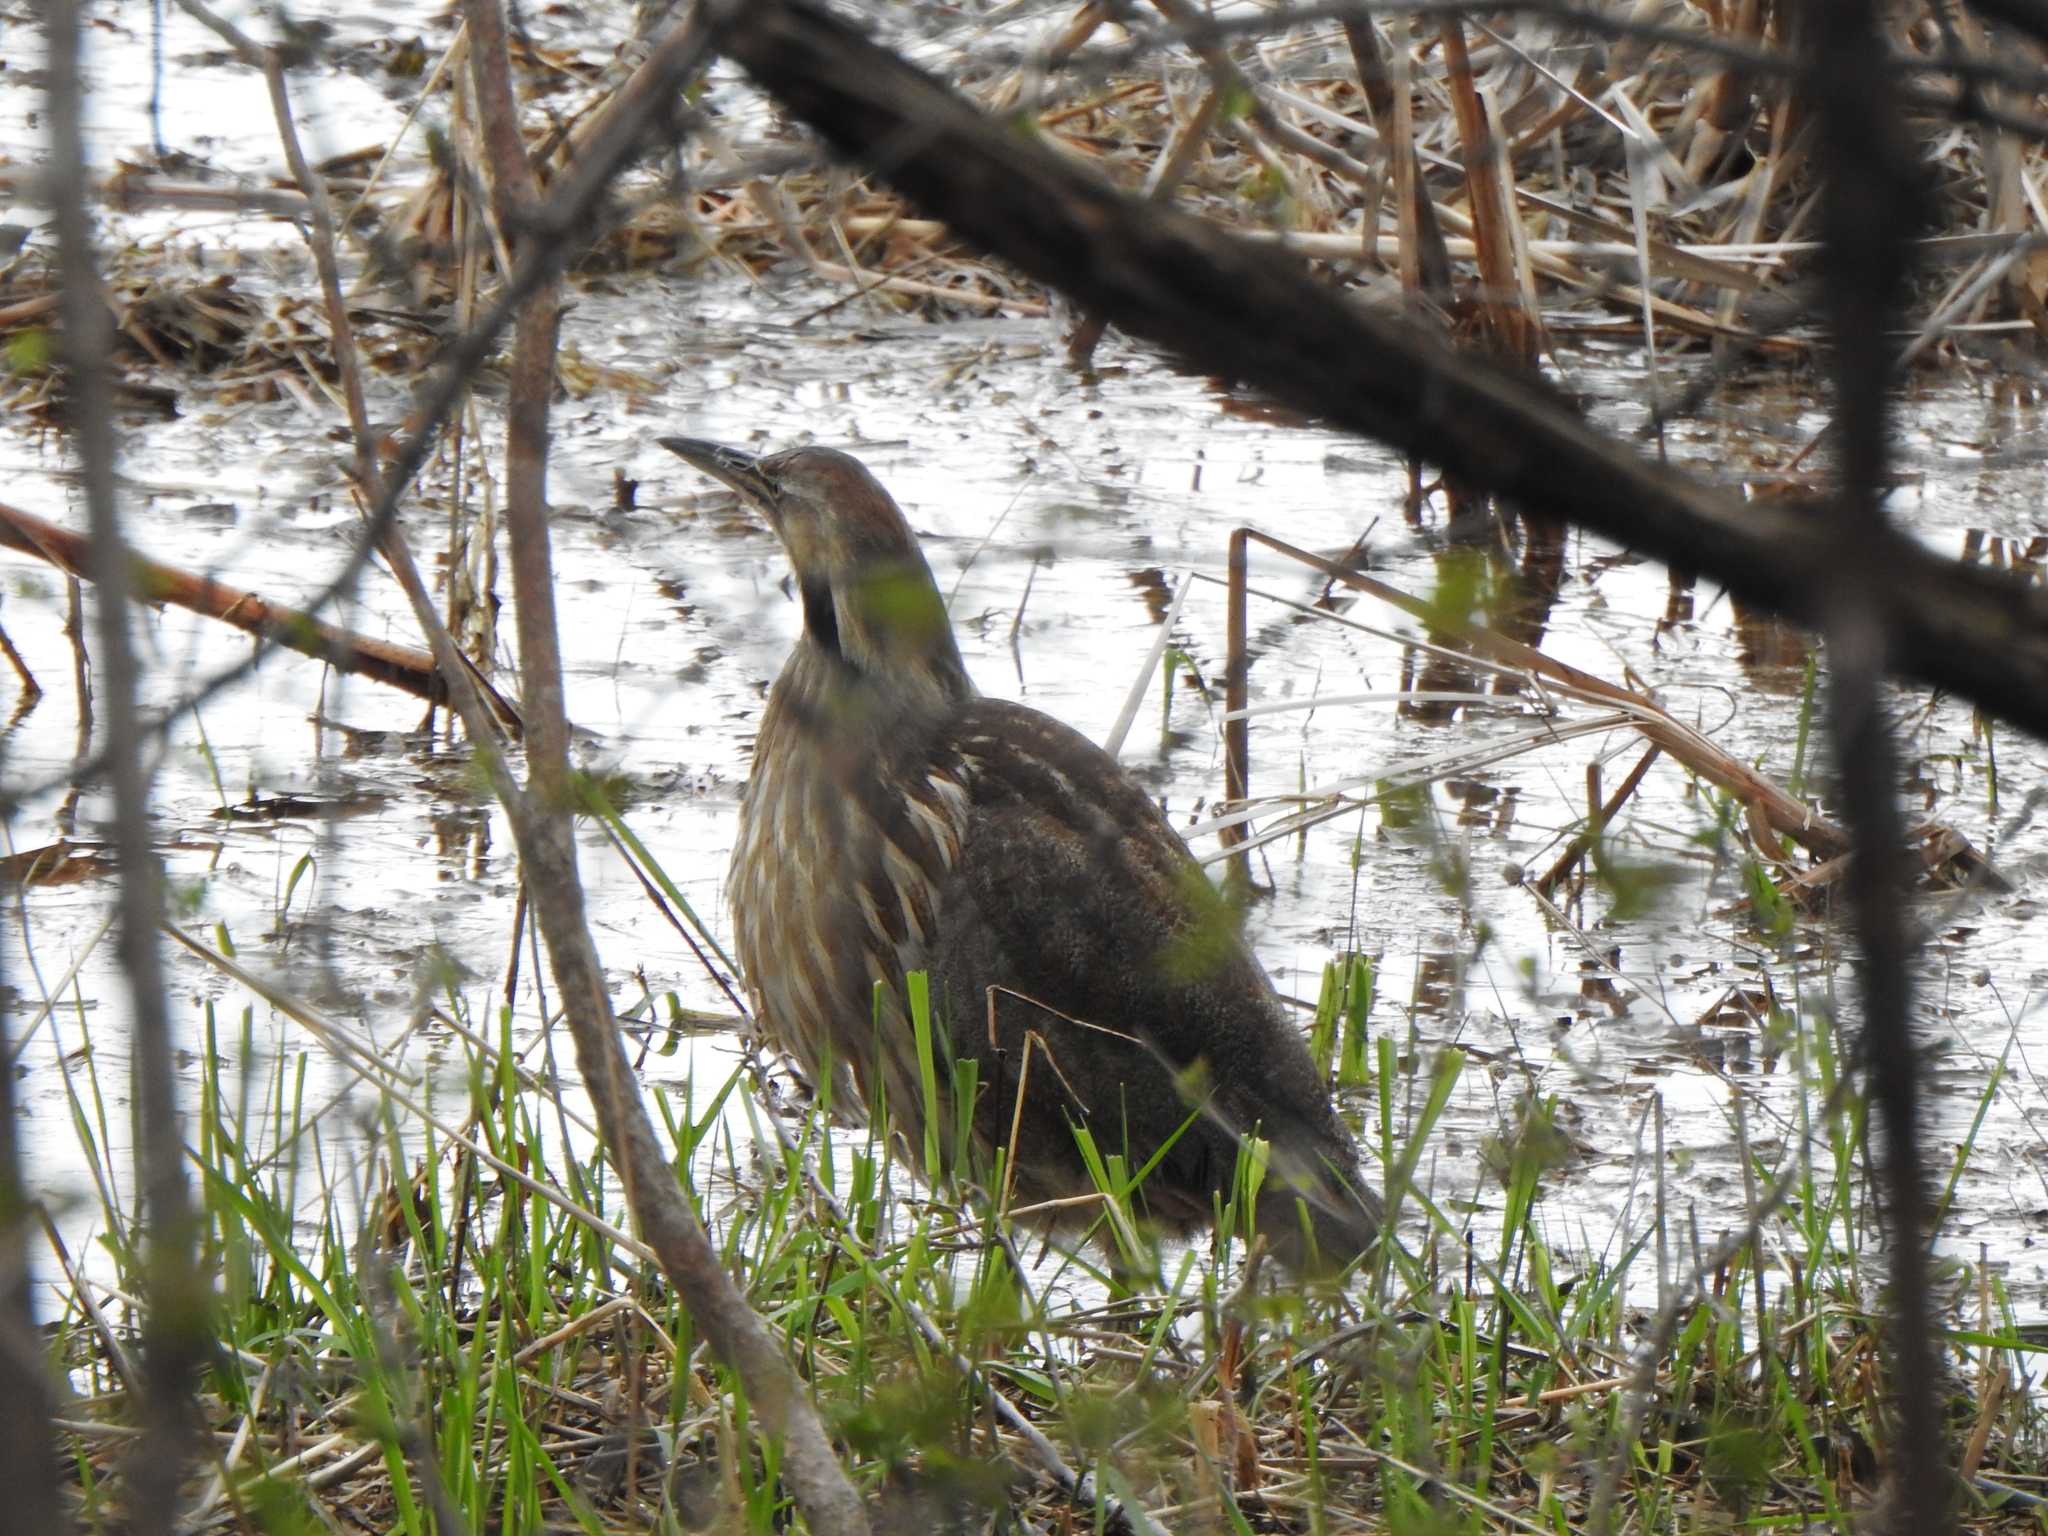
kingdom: Animalia
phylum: Chordata
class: Aves
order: Pelecaniformes
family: Ardeidae
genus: Botaurus
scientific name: Botaurus lentiginosus
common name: American bittern
